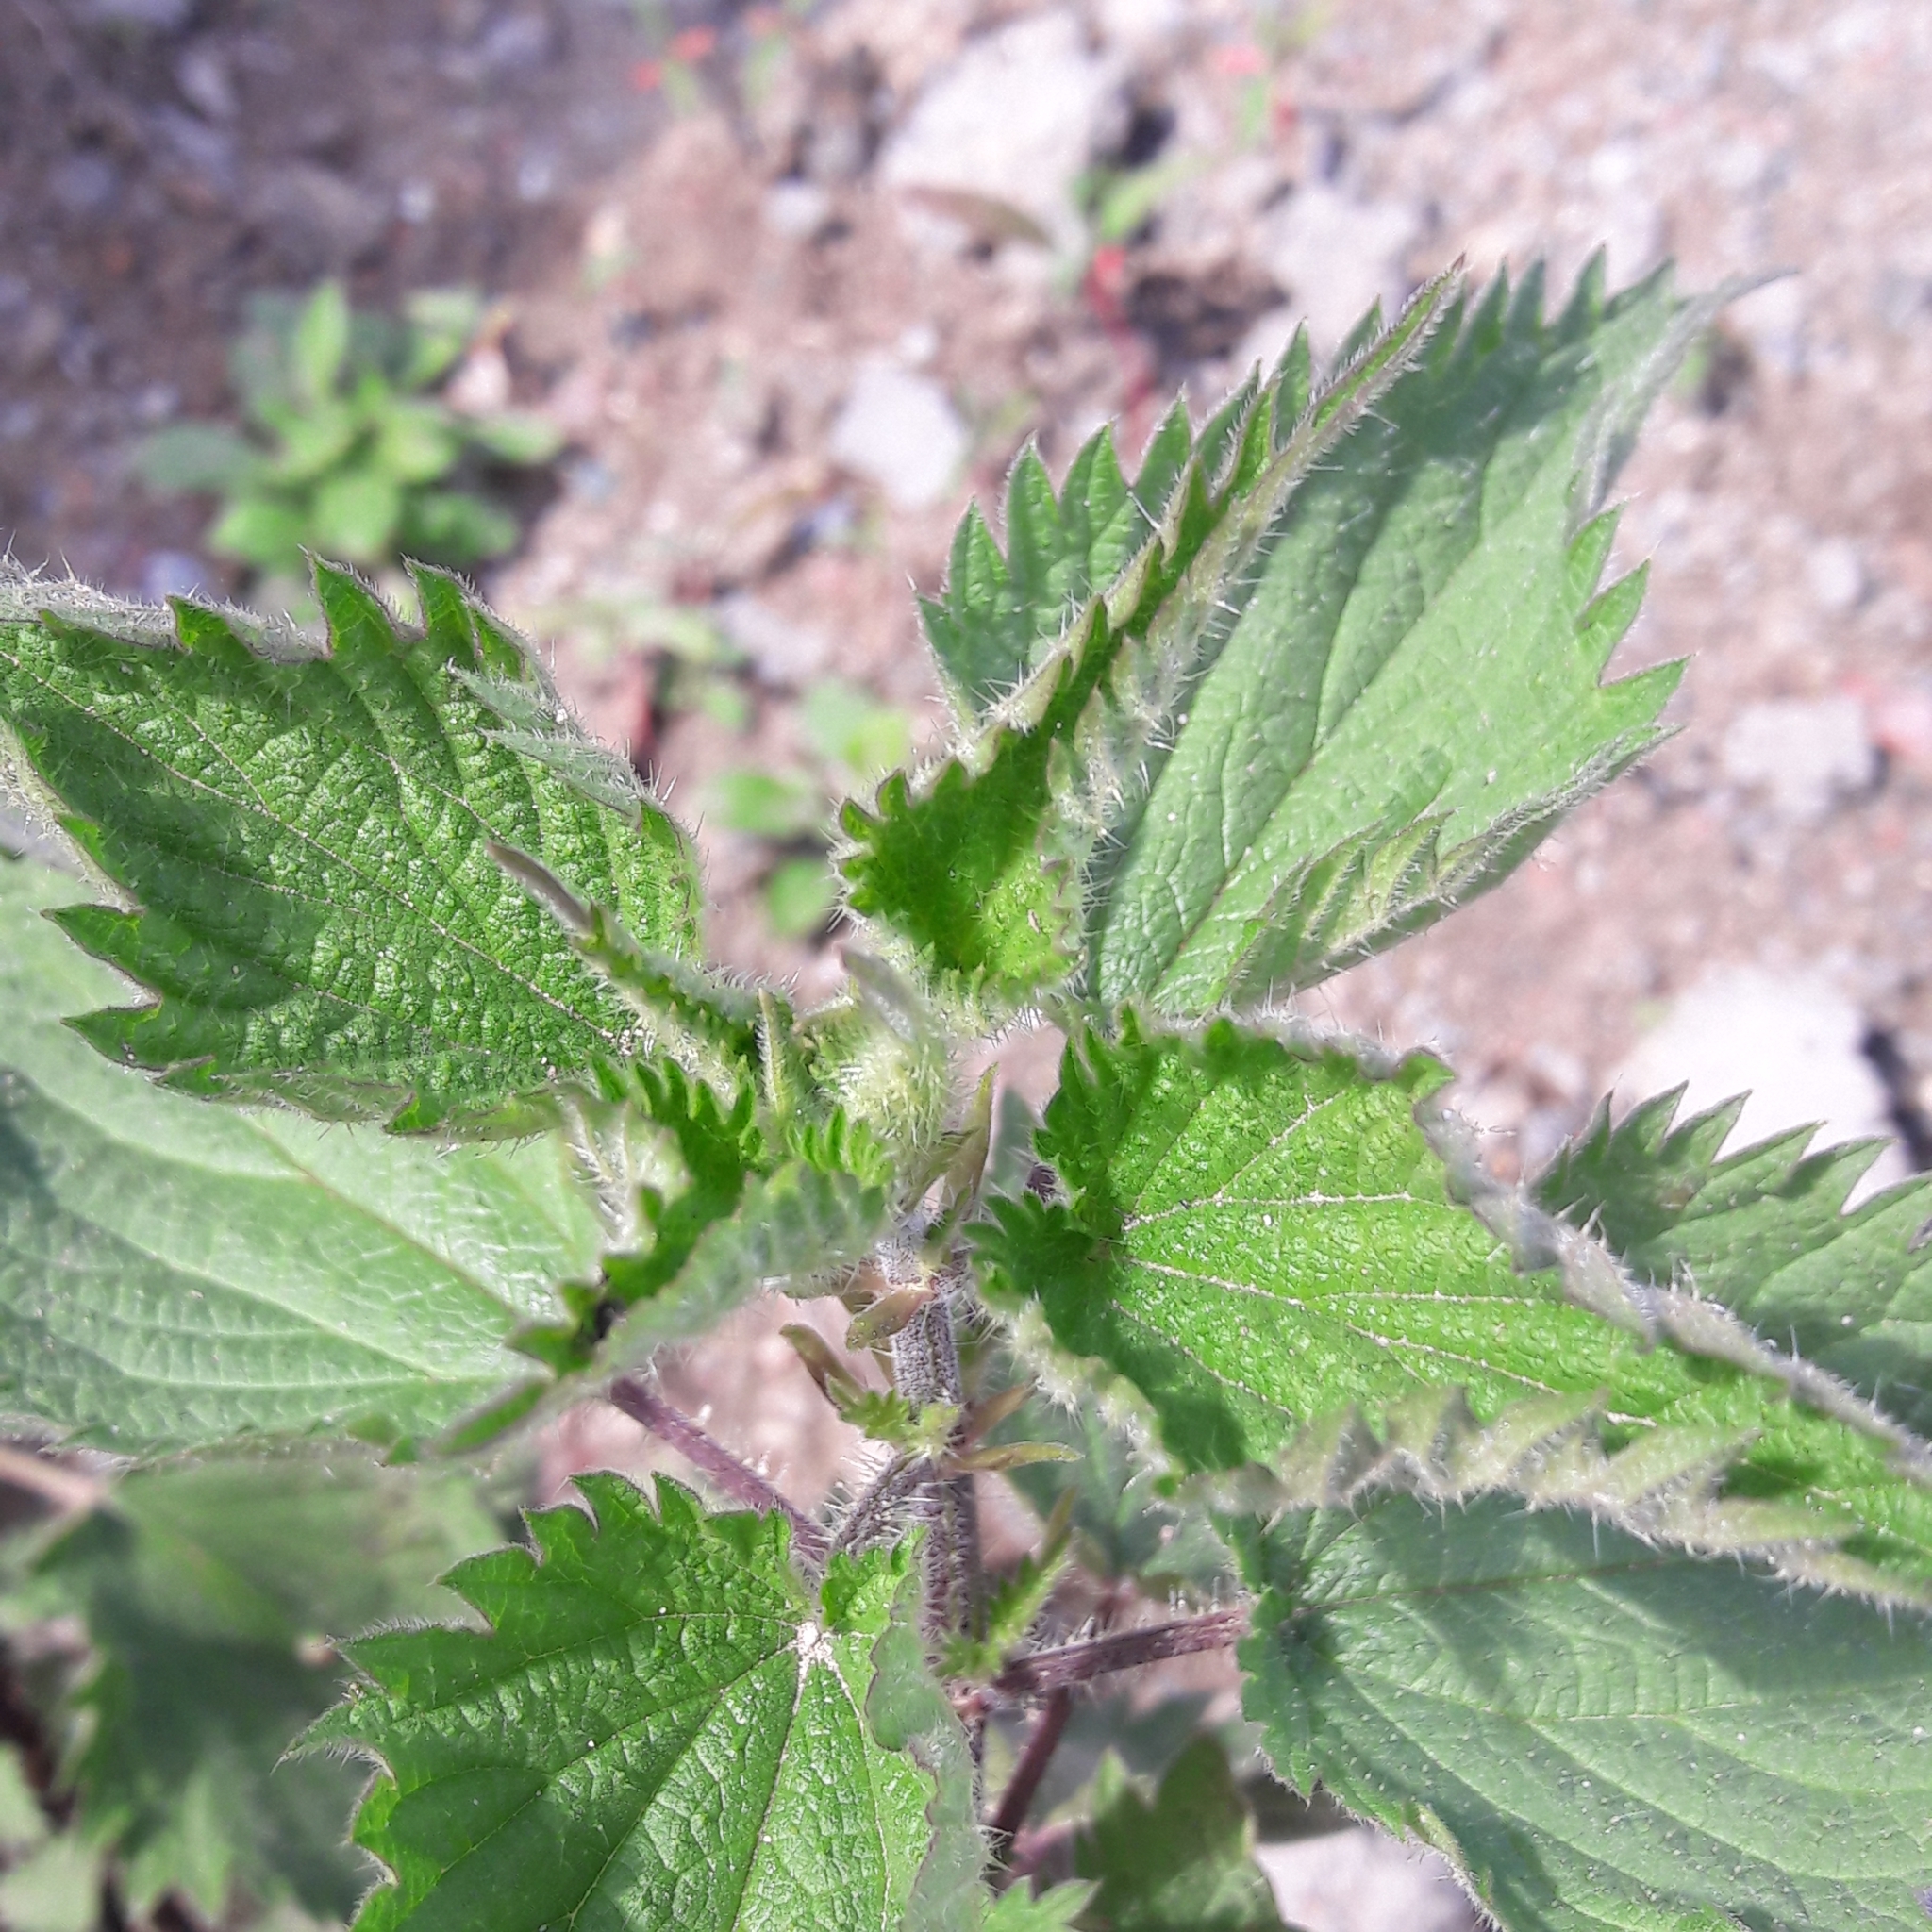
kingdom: Plantae
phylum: Tracheophyta
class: Magnoliopsida
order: Rosales
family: Urticaceae
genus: Urtica
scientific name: Urtica dioica
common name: Common nettle
